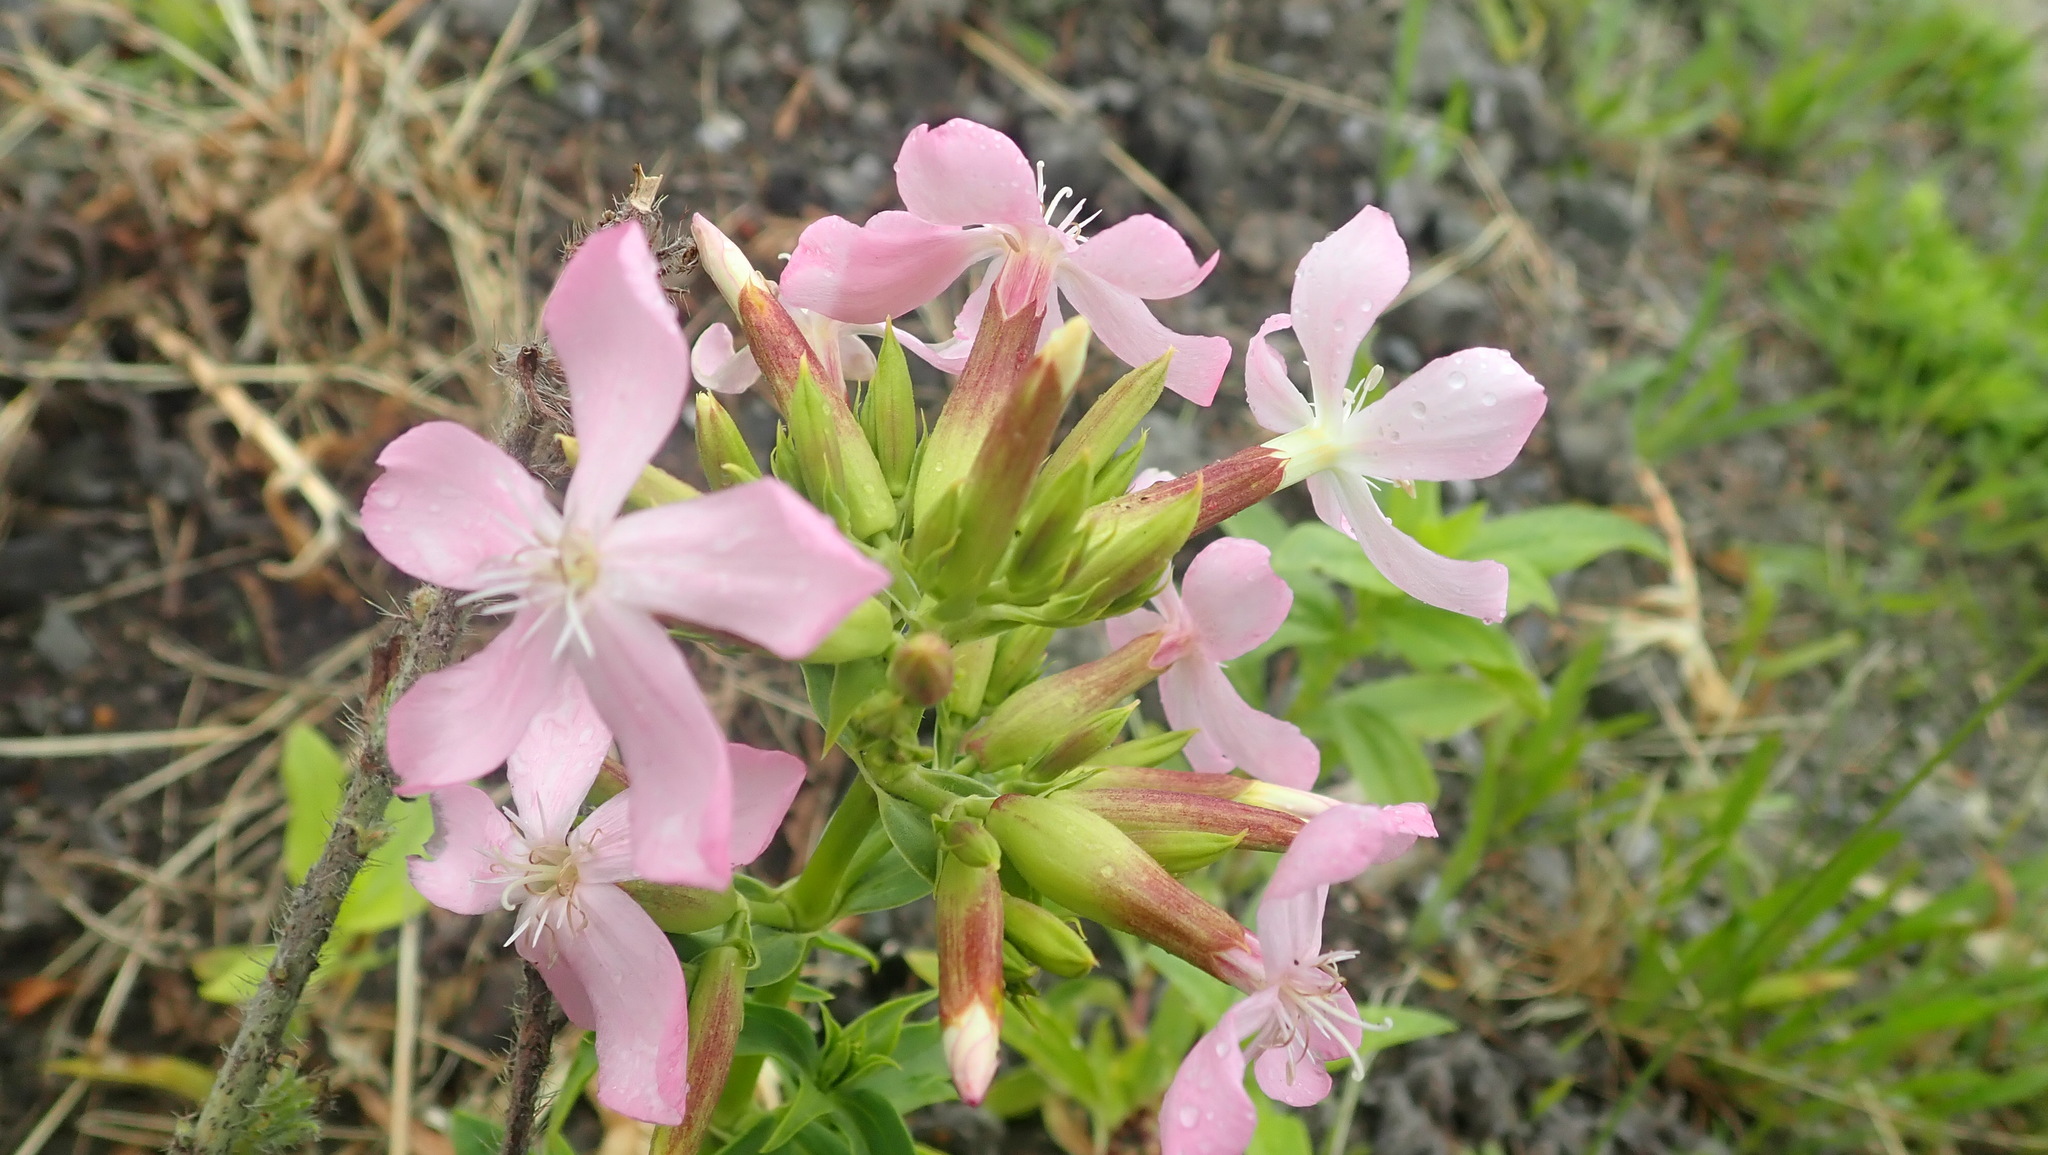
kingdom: Plantae
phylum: Tracheophyta
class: Magnoliopsida
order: Caryophyllales
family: Caryophyllaceae
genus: Saponaria
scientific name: Saponaria officinalis
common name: Soapwort
